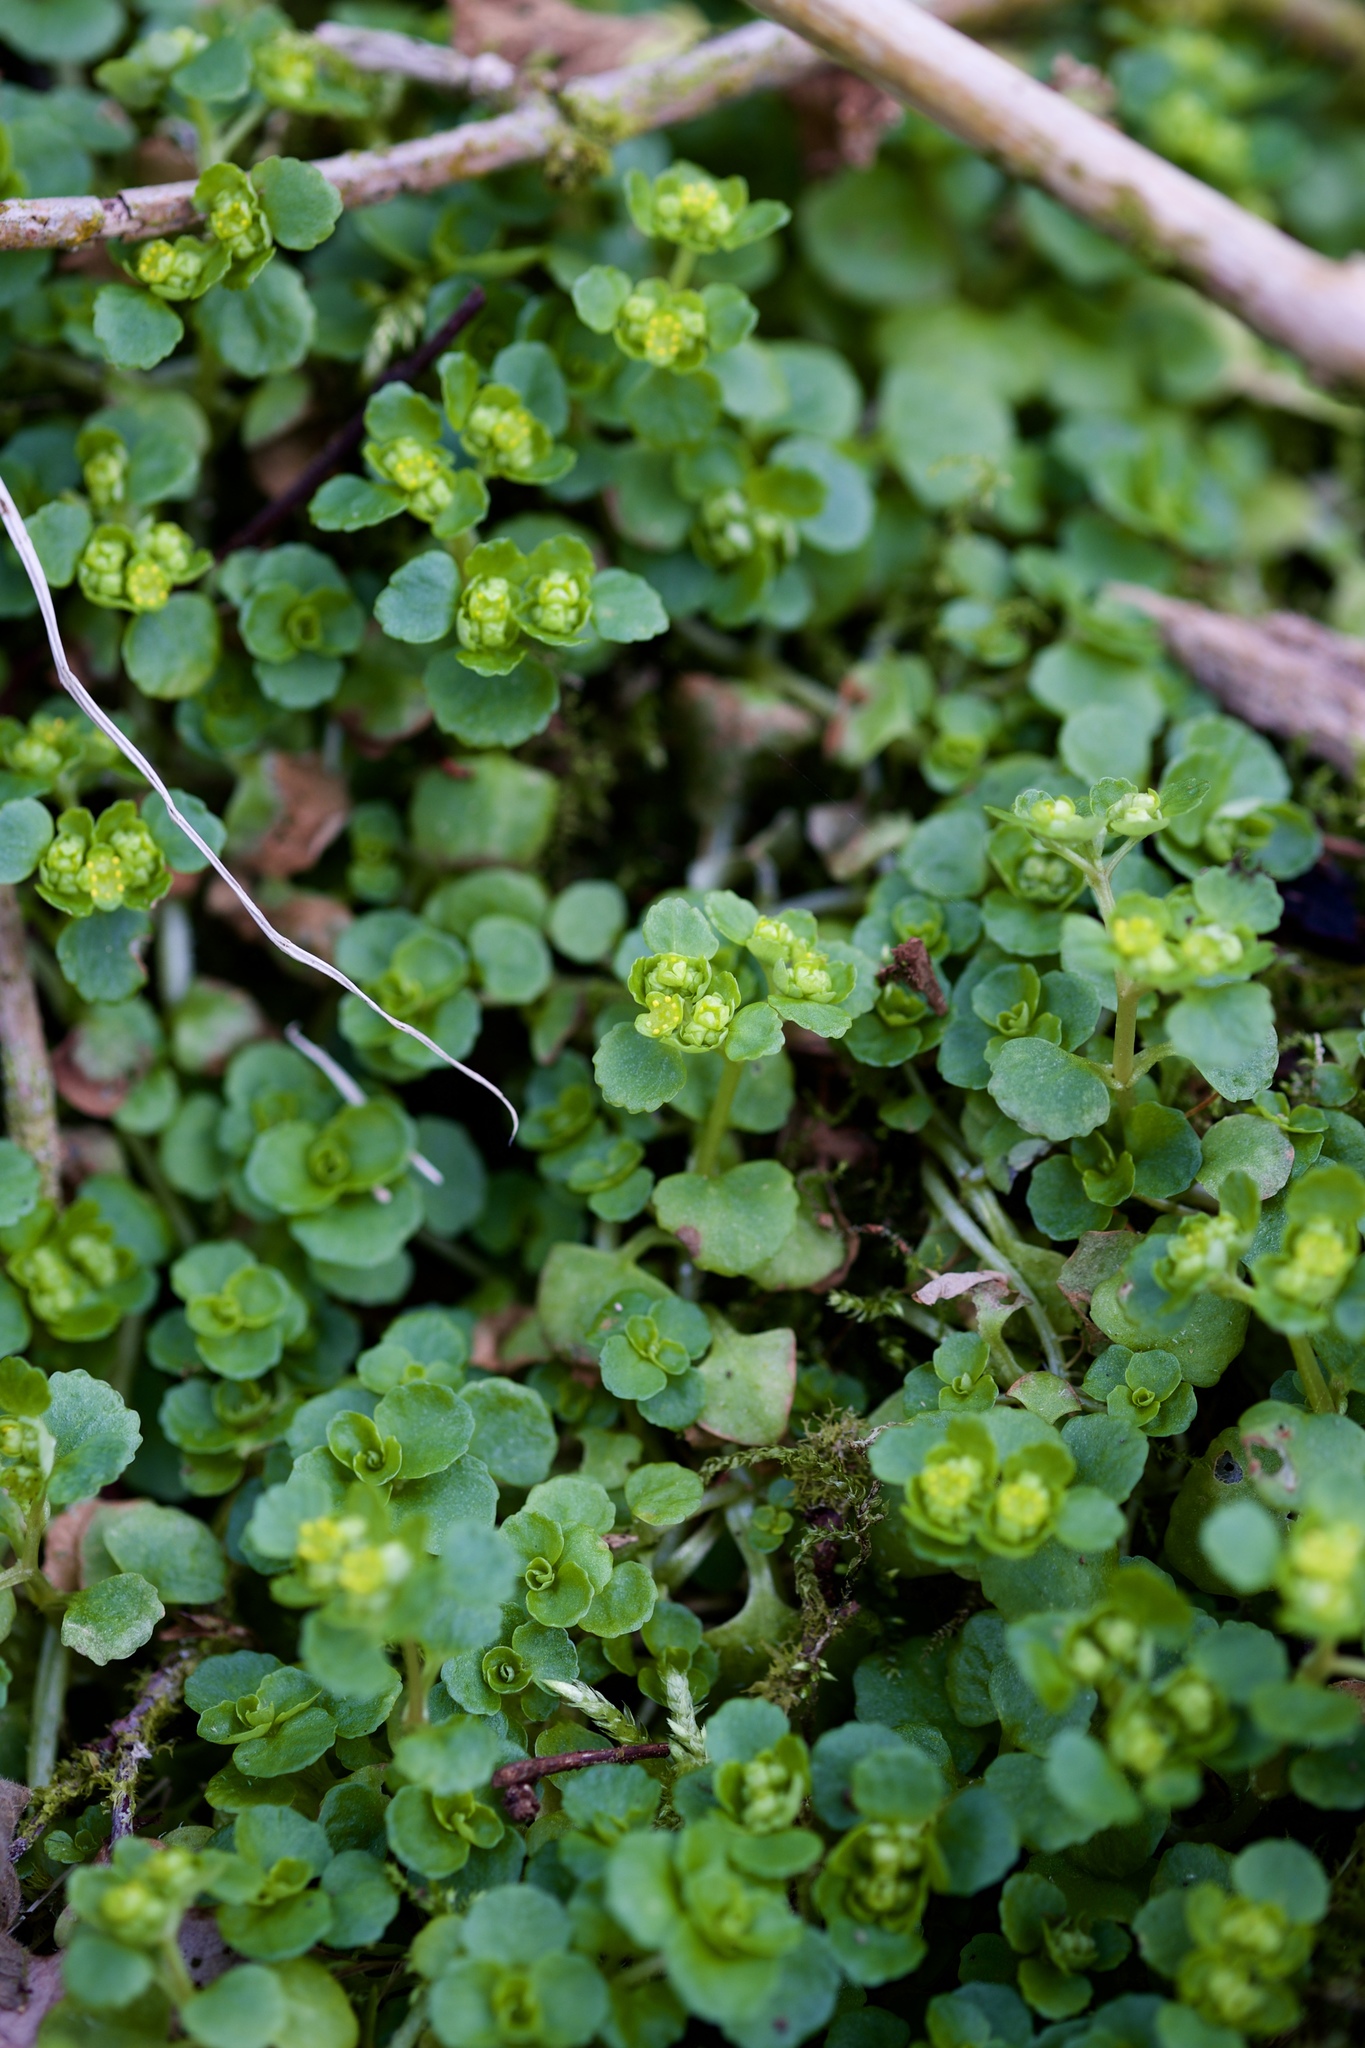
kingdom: Plantae
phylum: Tracheophyta
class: Magnoliopsida
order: Saxifragales
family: Saxifragaceae
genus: Chrysosplenium
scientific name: Chrysosplenium oppositifolium
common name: Opposite-leaved golden-saxifrage
